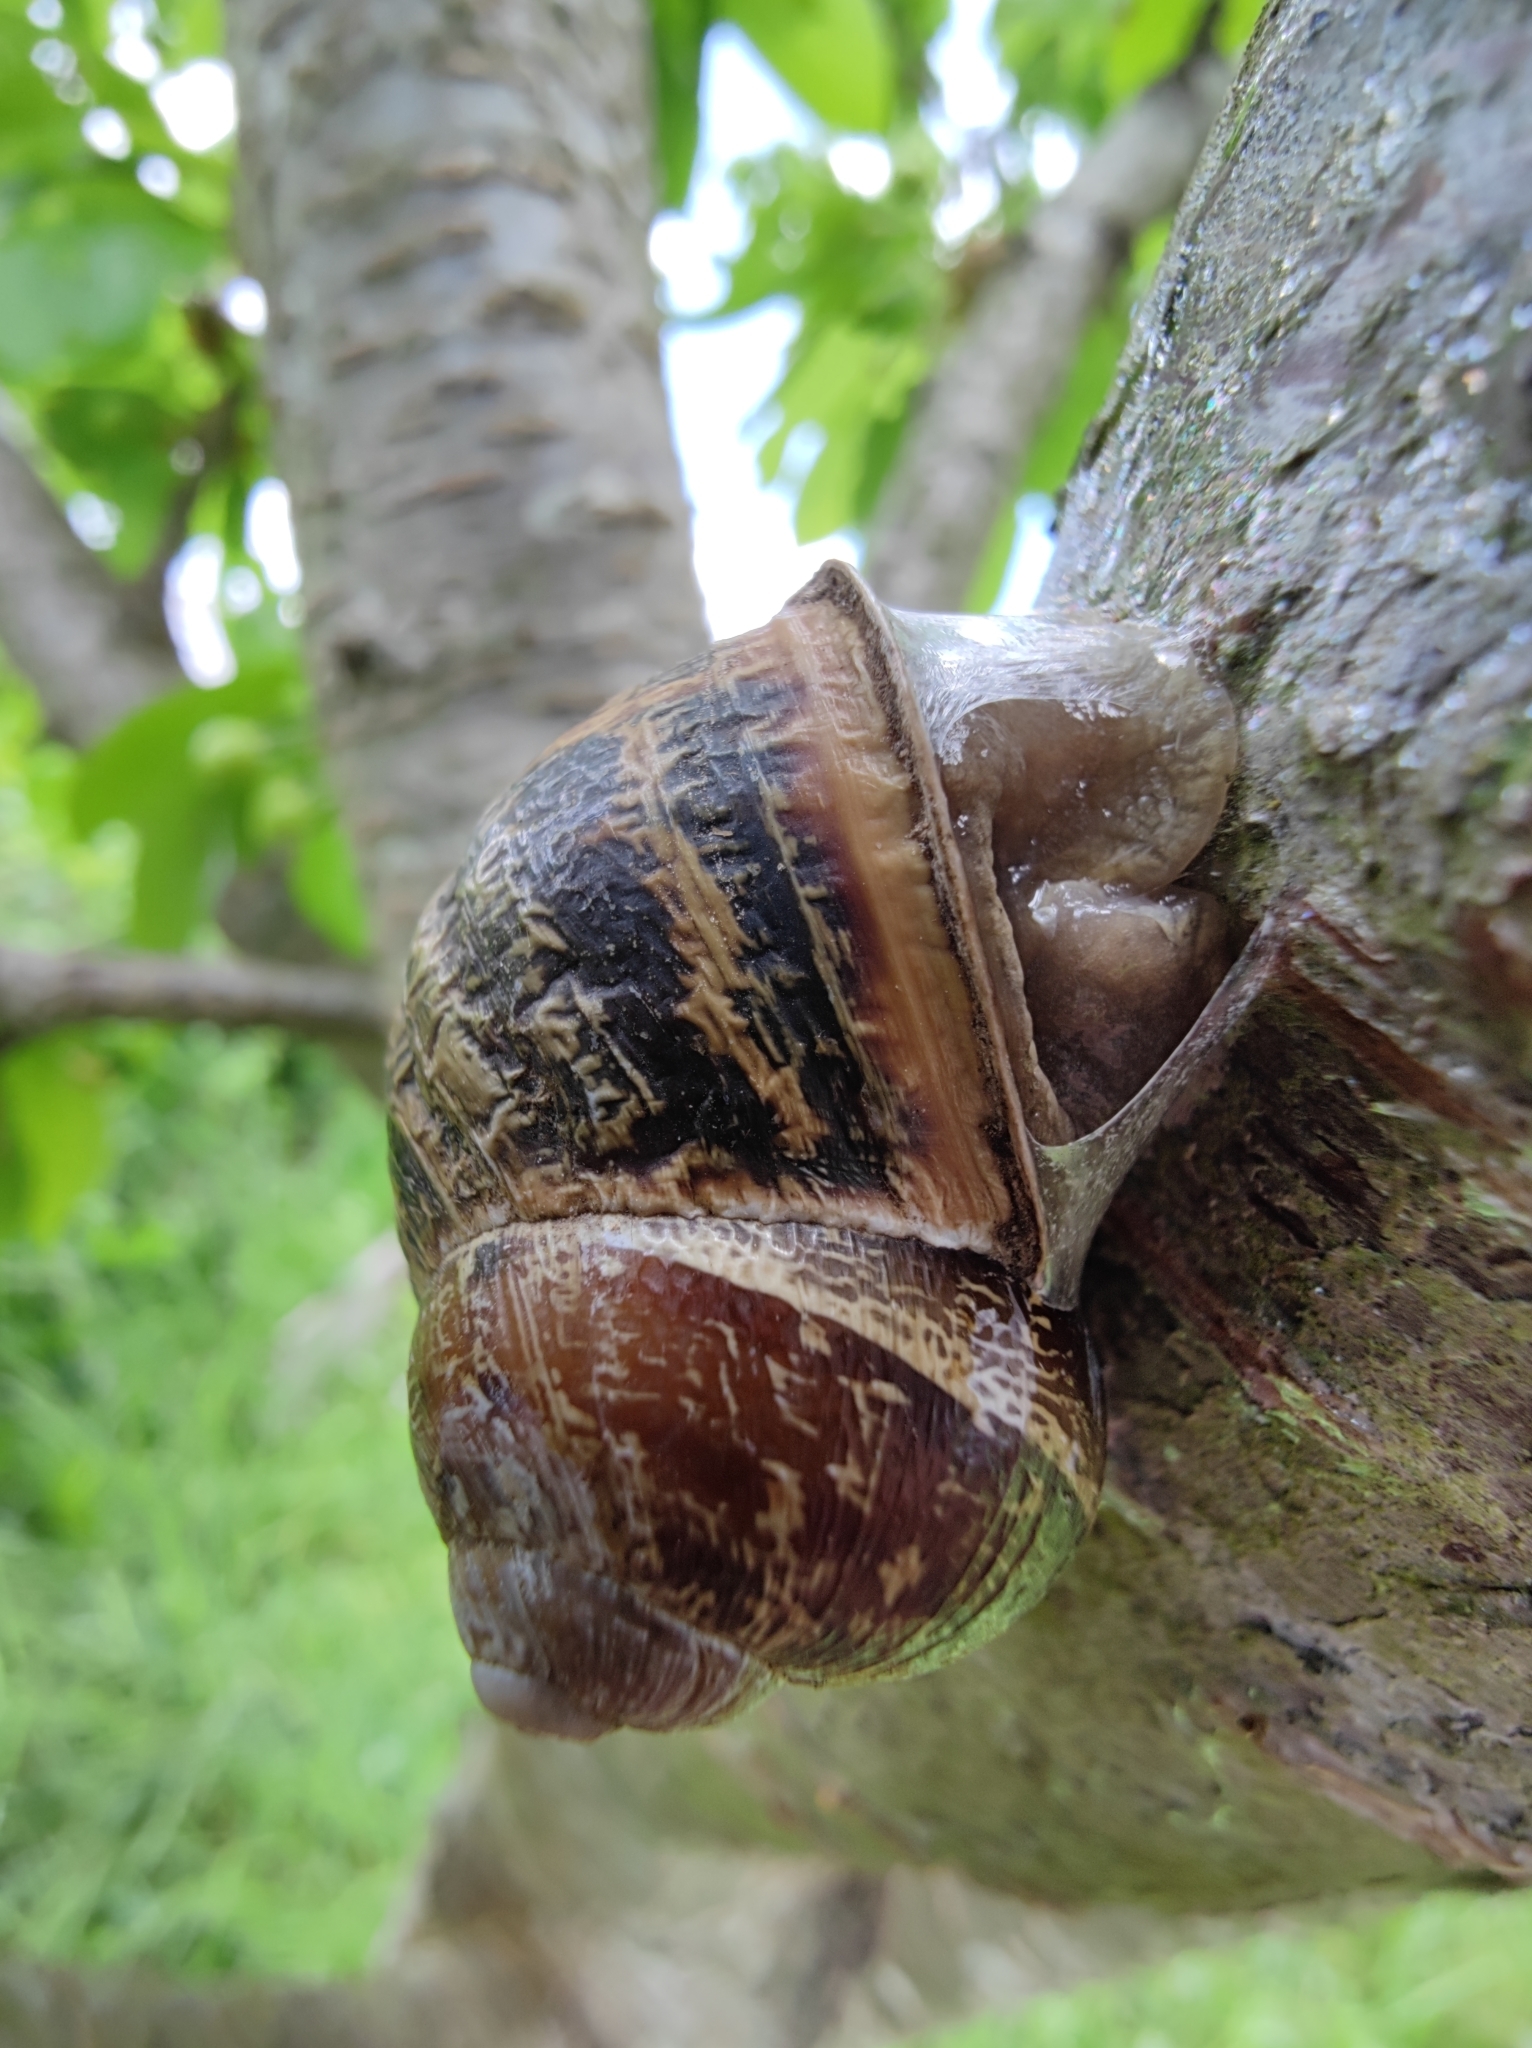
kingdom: Animalia
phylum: Mollusca
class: Gastropoda
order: Stylommatophora
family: Helicidae
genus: Cornu
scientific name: Cornu aspersum
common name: Brown garden snail
